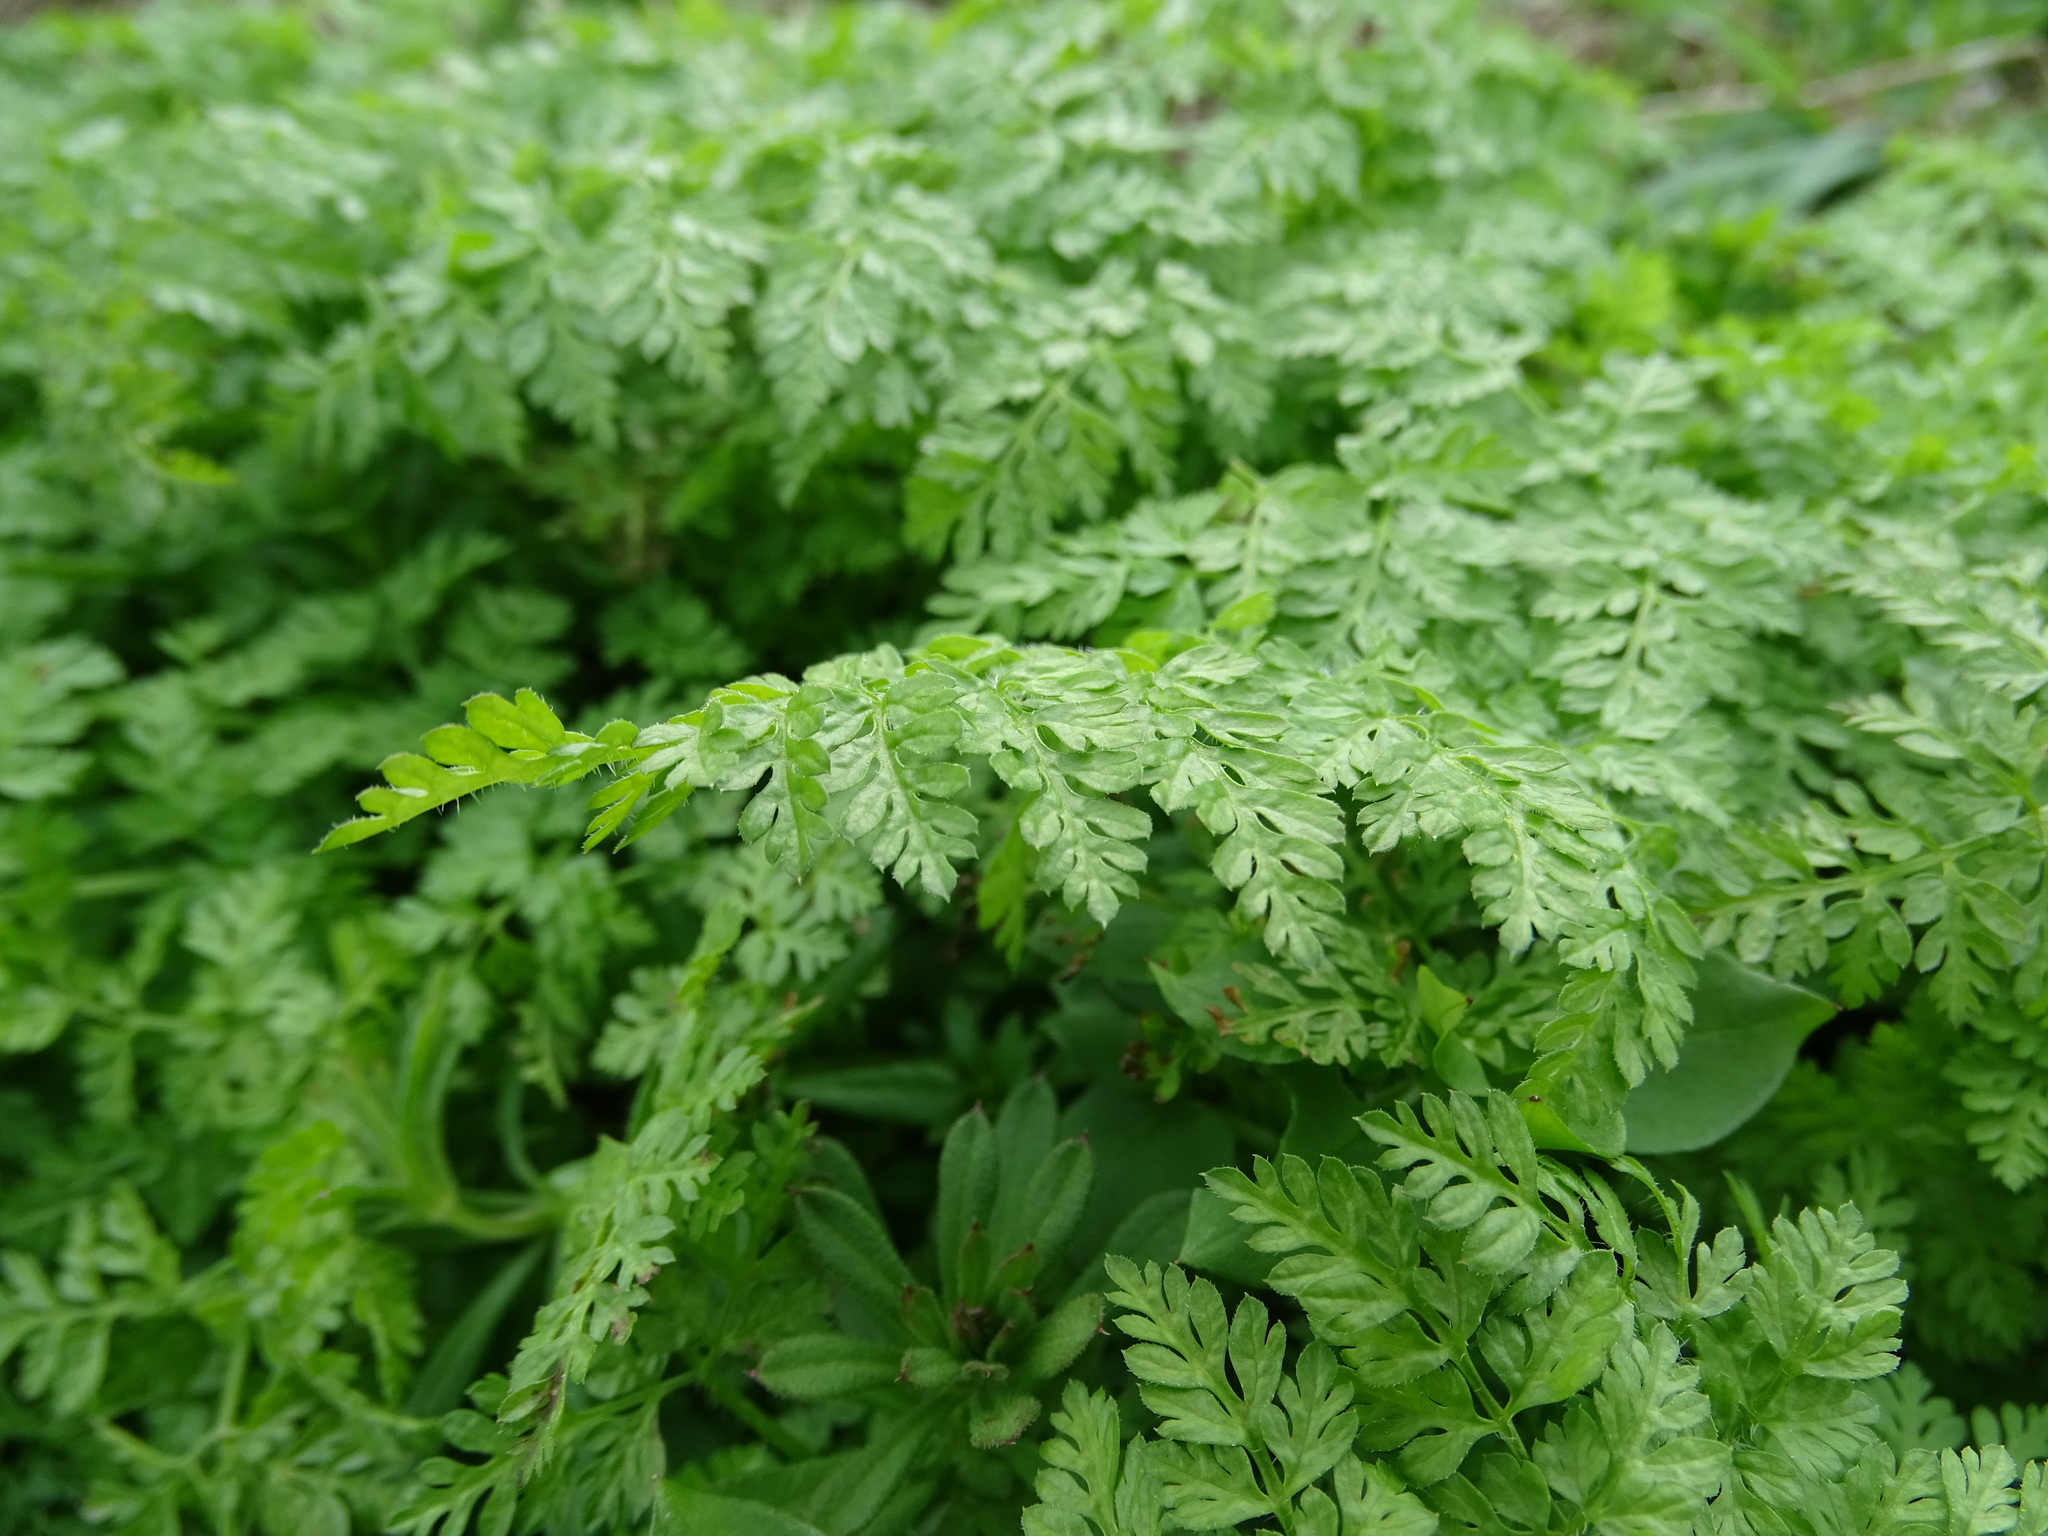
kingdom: Plantae
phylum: Tracheophyta
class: Magnoliopsida
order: Apiales
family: Apiaceae
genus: Anthriscus
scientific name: Anthriscus cerefolium
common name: Garden chervil
